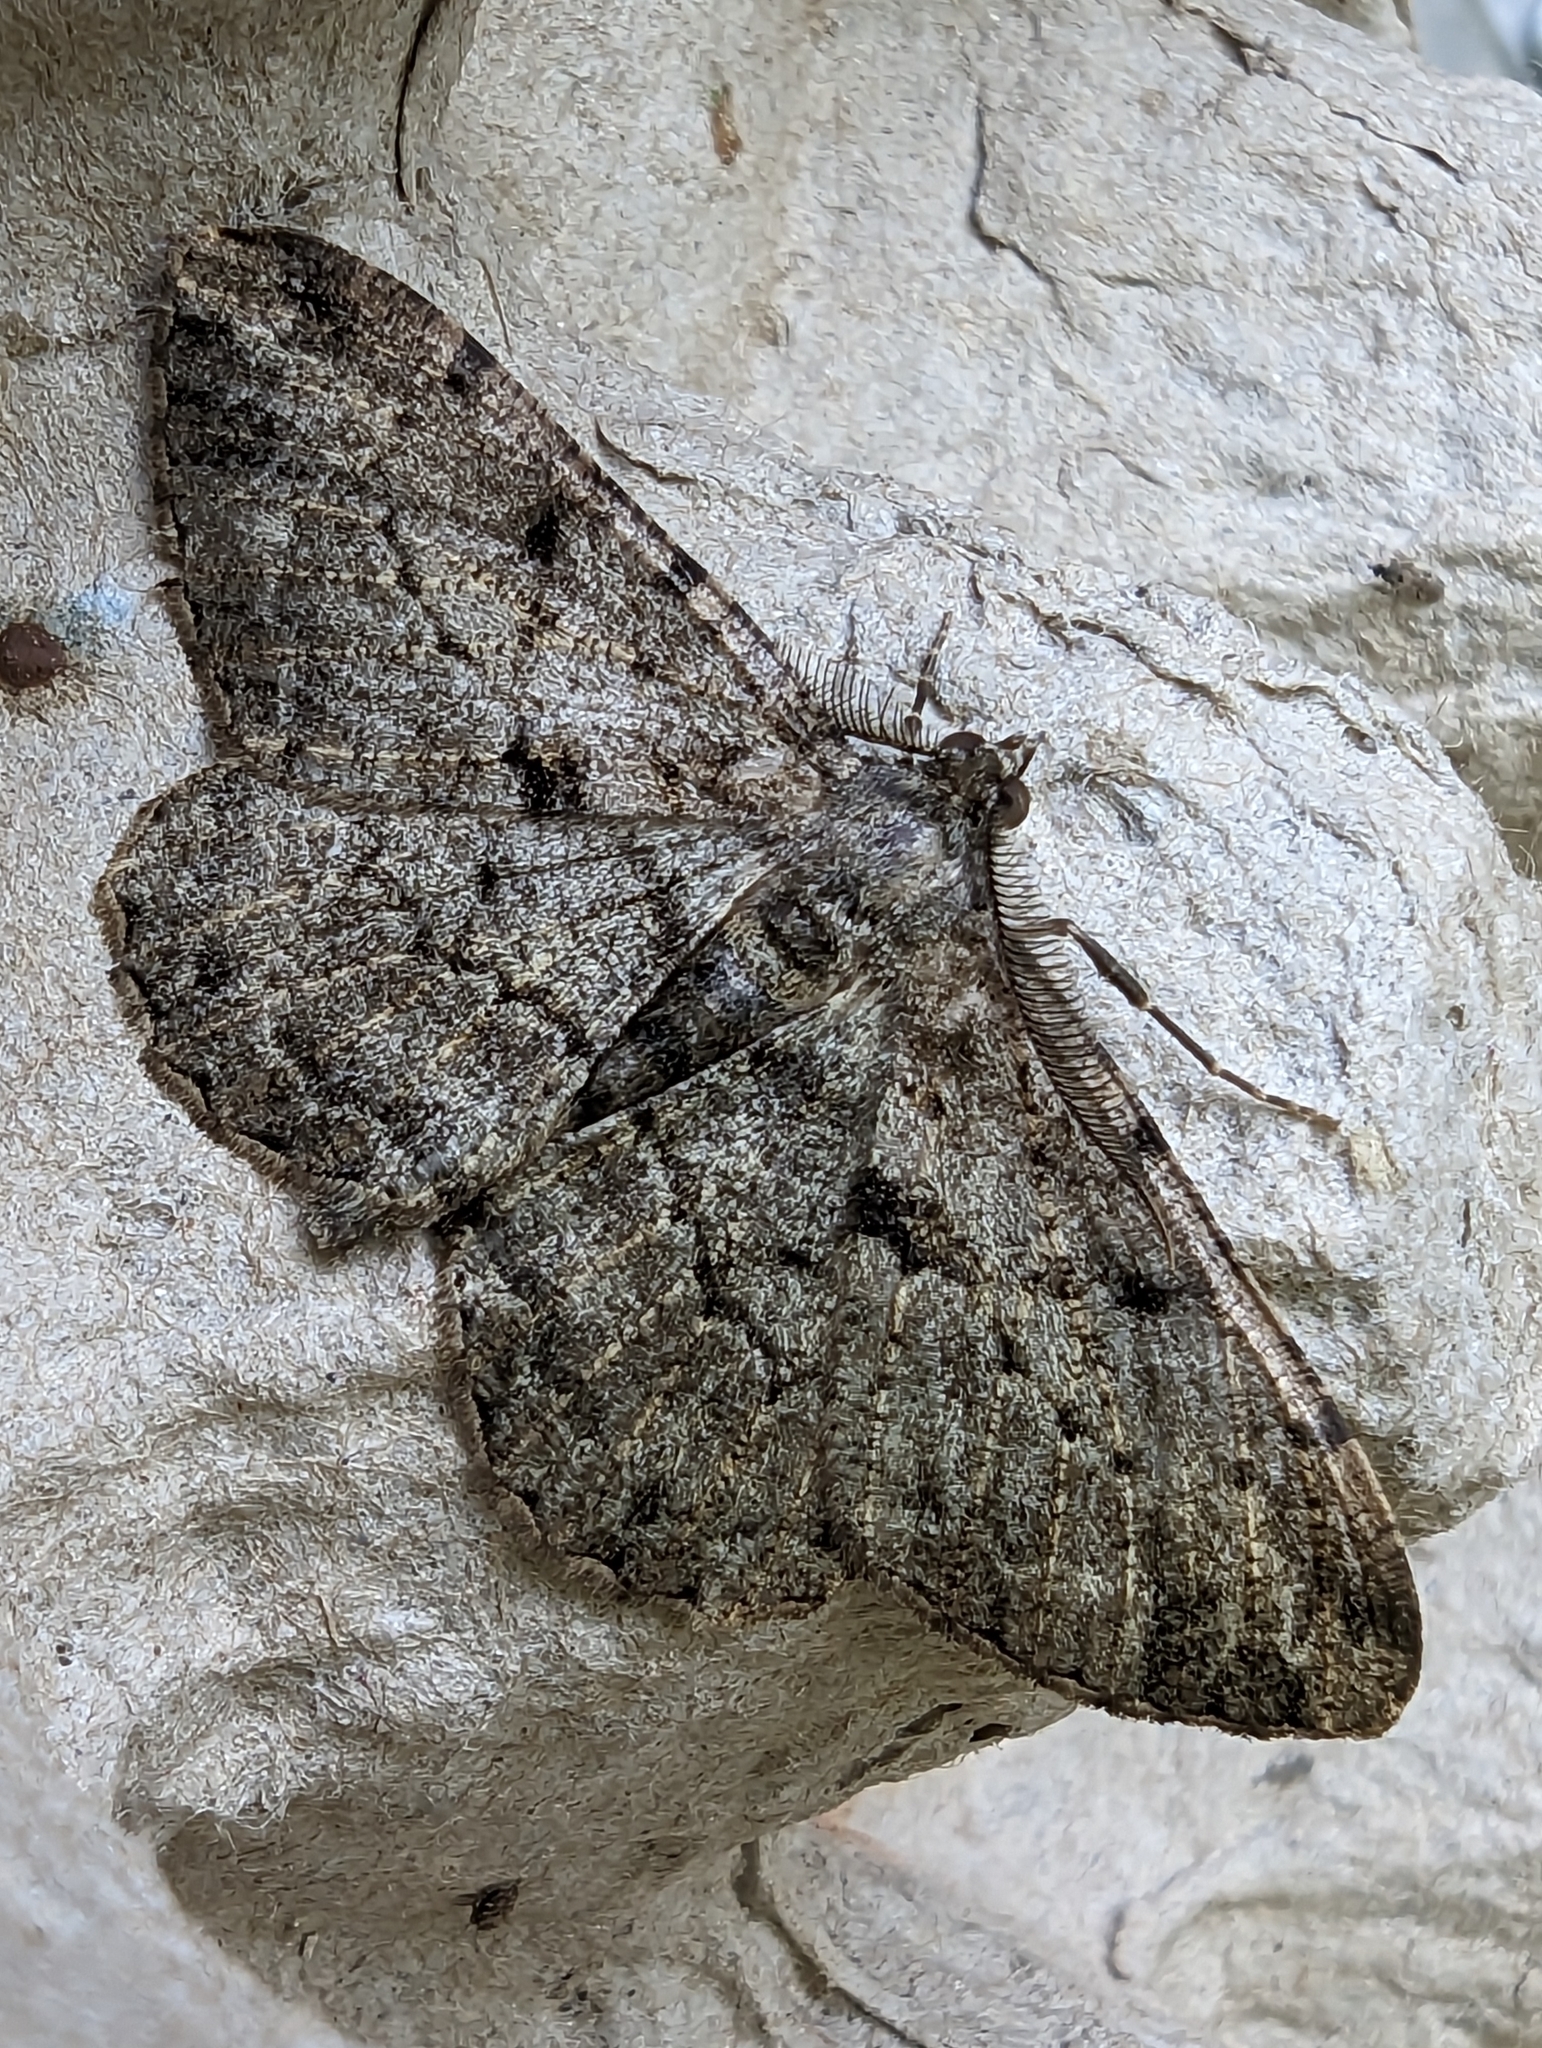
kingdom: Animalia
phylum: Arthropoda
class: Insecta
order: Lepidoptera
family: Geometridae
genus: Peribatodes
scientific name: Peribatodes rhomboidaria
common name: Willow beauty
